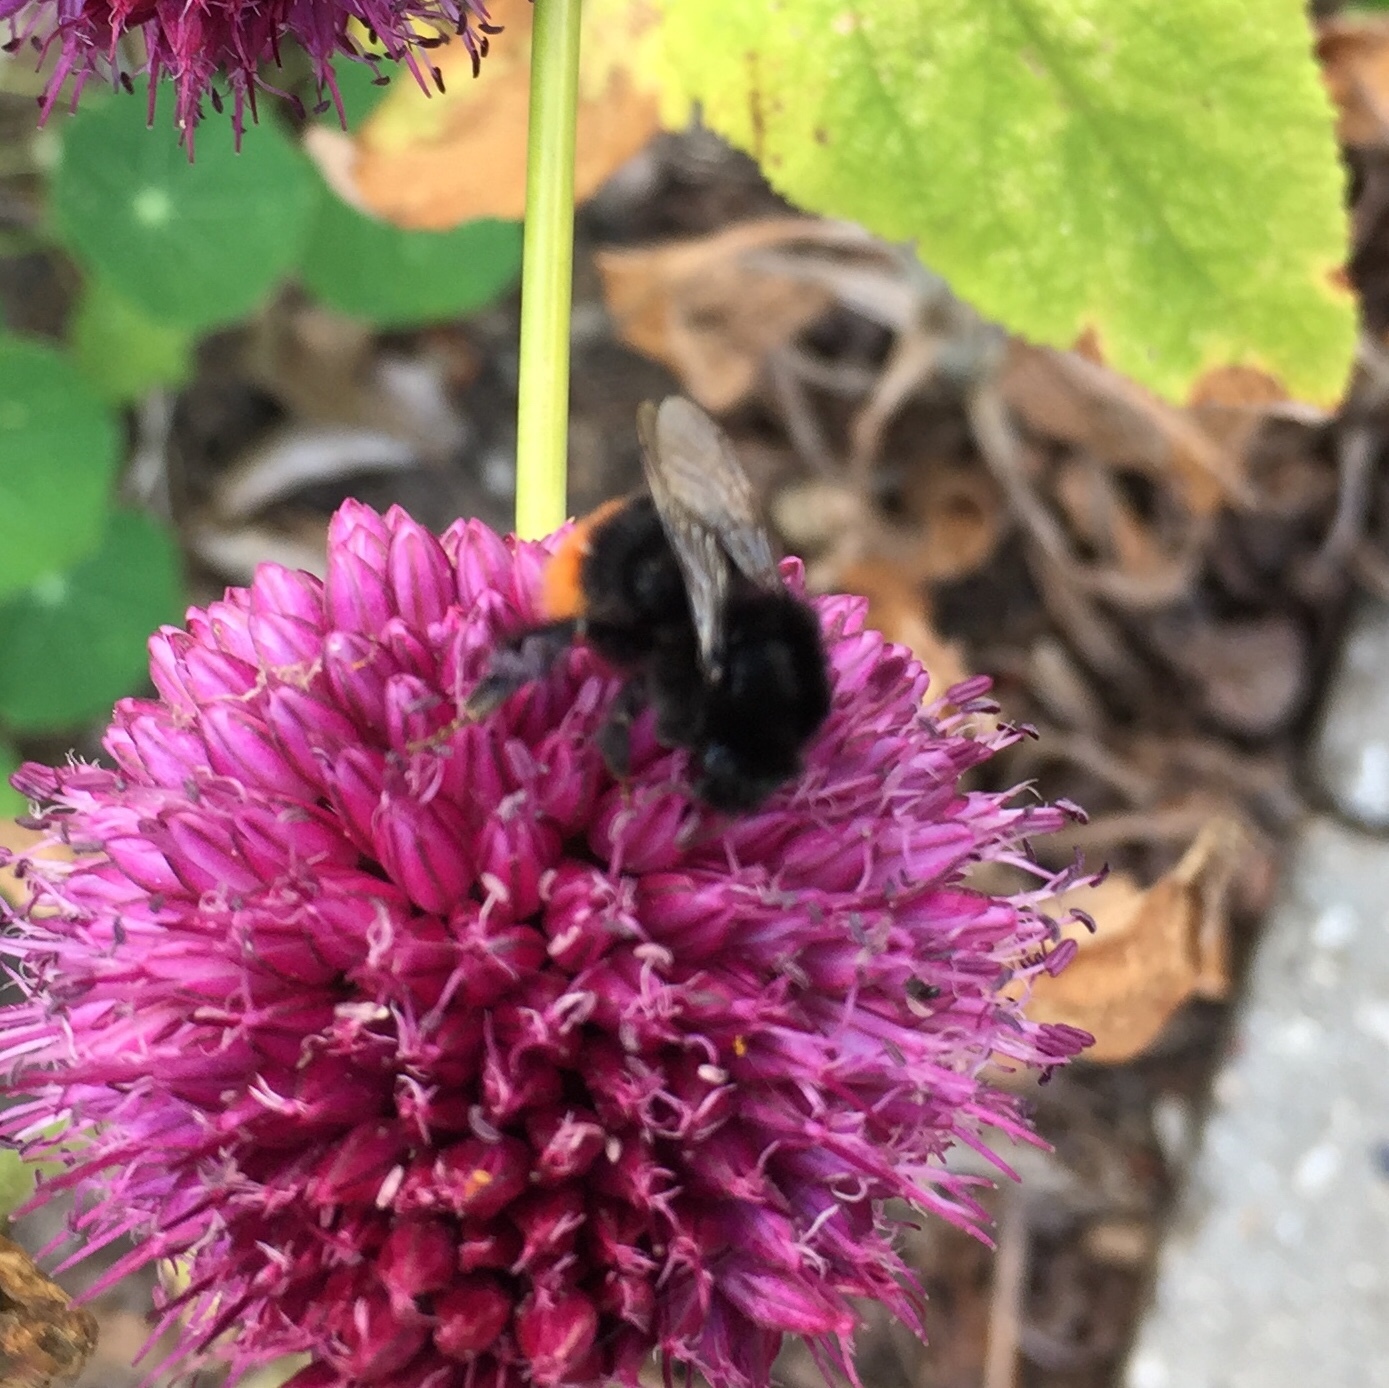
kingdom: Animalia
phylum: Arthropoda
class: Insecta
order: Hymenoptera
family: Apidae
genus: Bombus
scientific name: Bombus lapidarius
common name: Large red-tailed humble-bee
